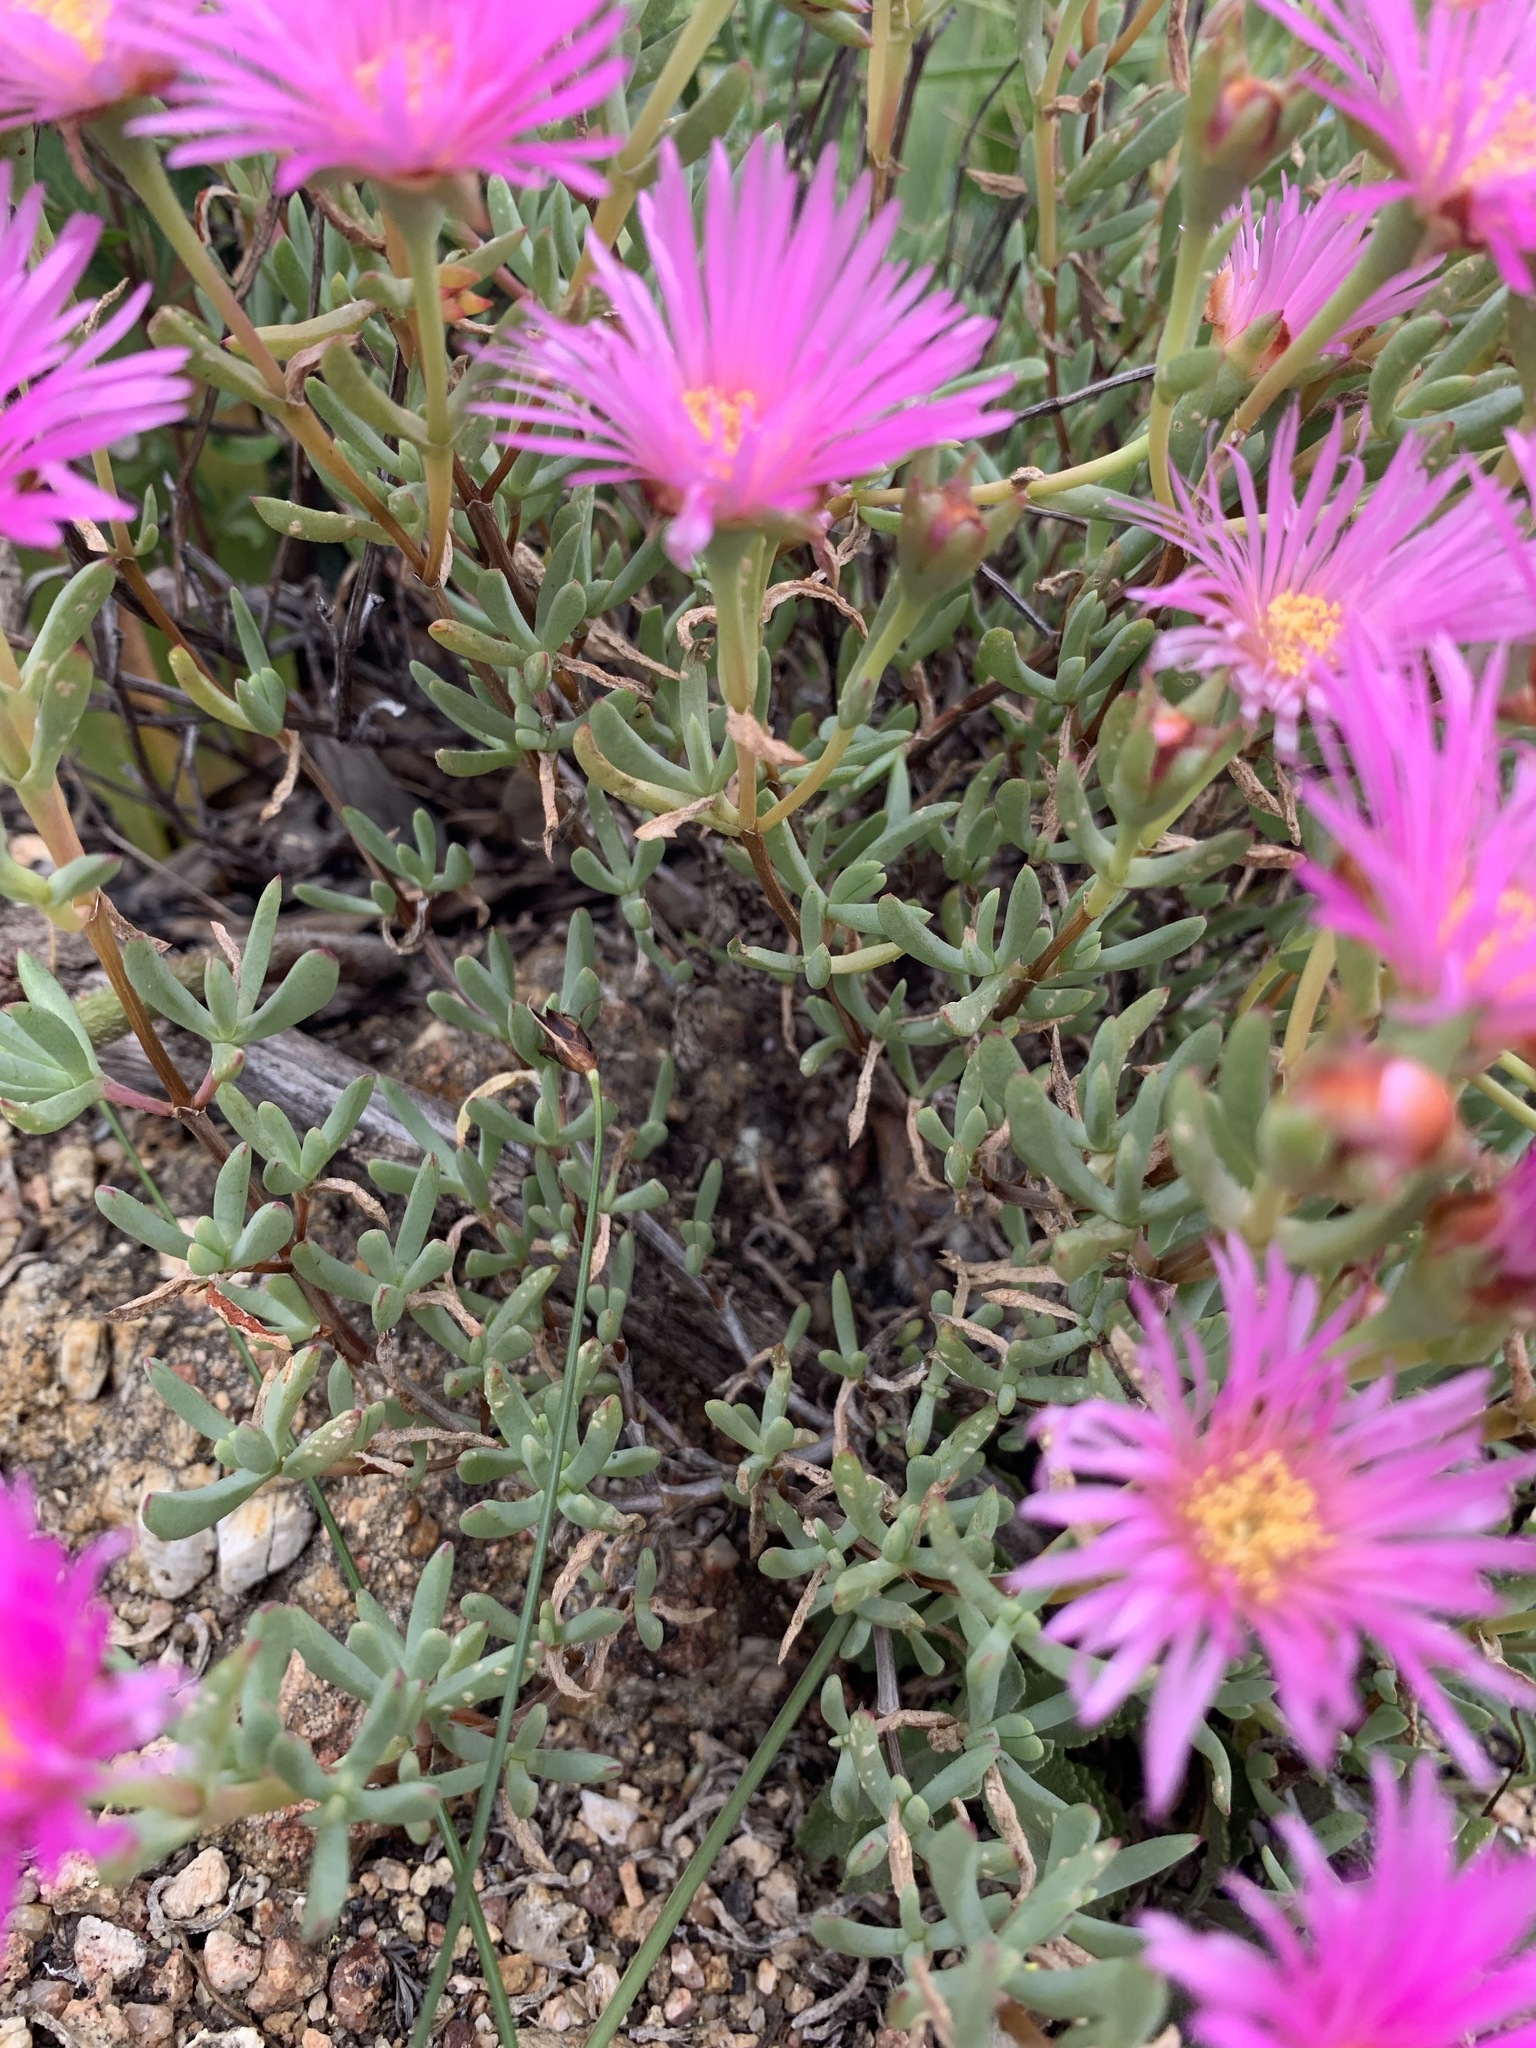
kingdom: Plantae
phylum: Tracheophyta
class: Magnoliopsida
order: Caryophyllales
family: Aizoaceae
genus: Lampranthus
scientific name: Lampranthus multiradiatus
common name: Creeping redflush
